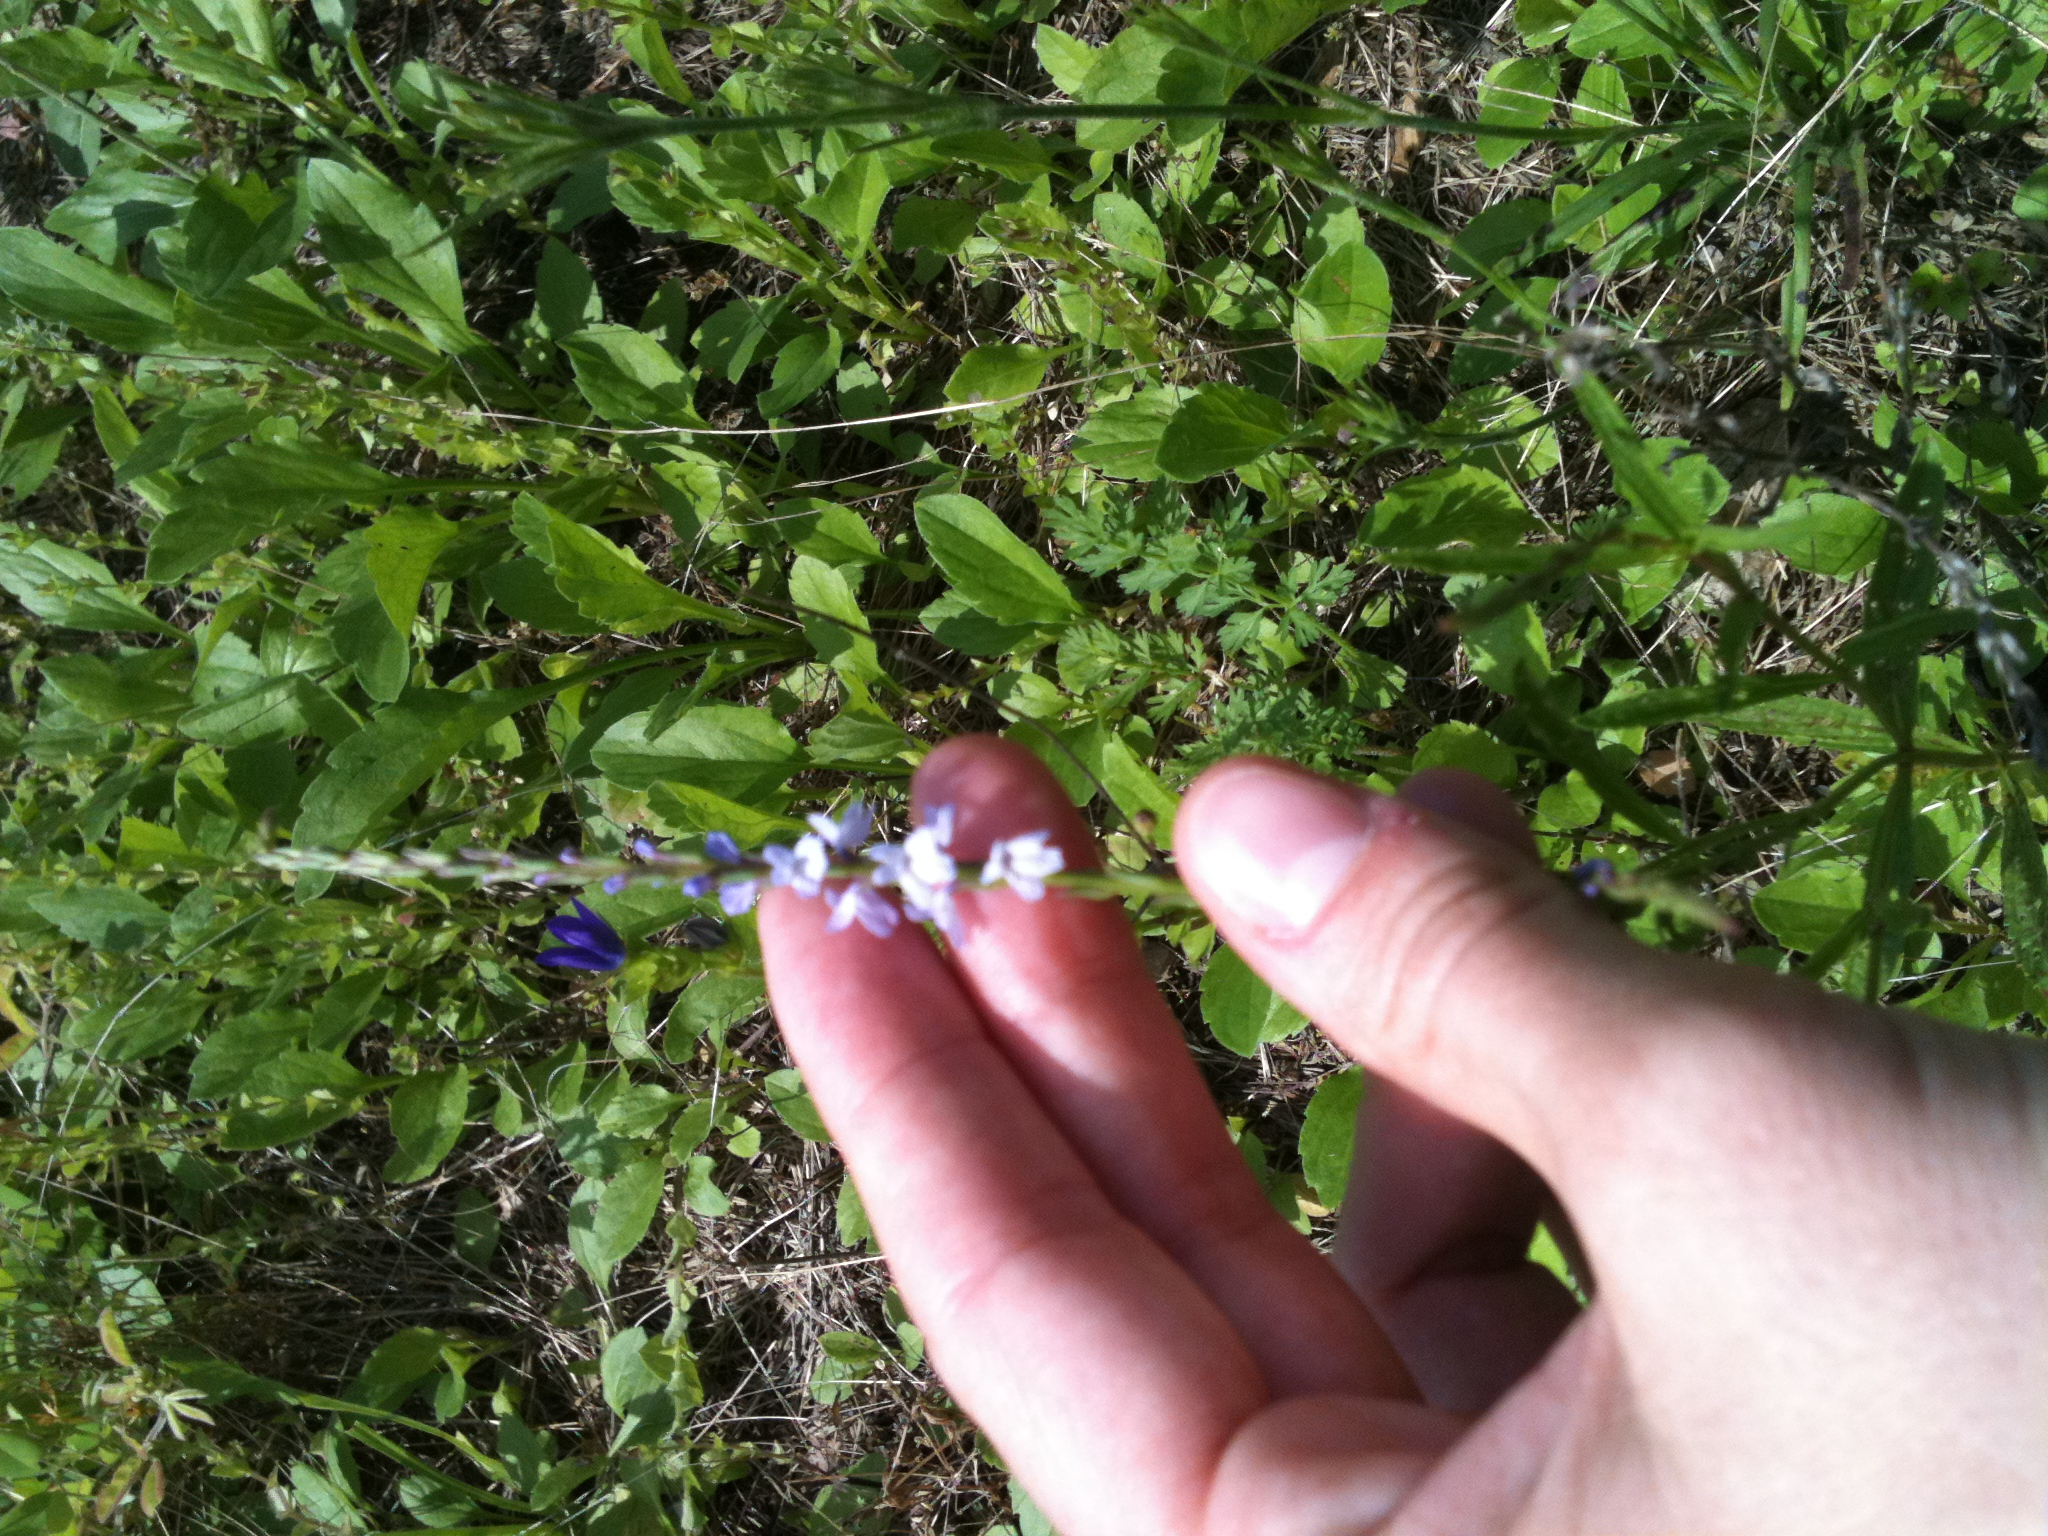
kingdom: Plantae
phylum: Tracheophyta
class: Magnoliopsida
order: Lamiales
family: Verbenaceae
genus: Verbena
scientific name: Verbena simplex
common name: Narrow-leaf vervain
